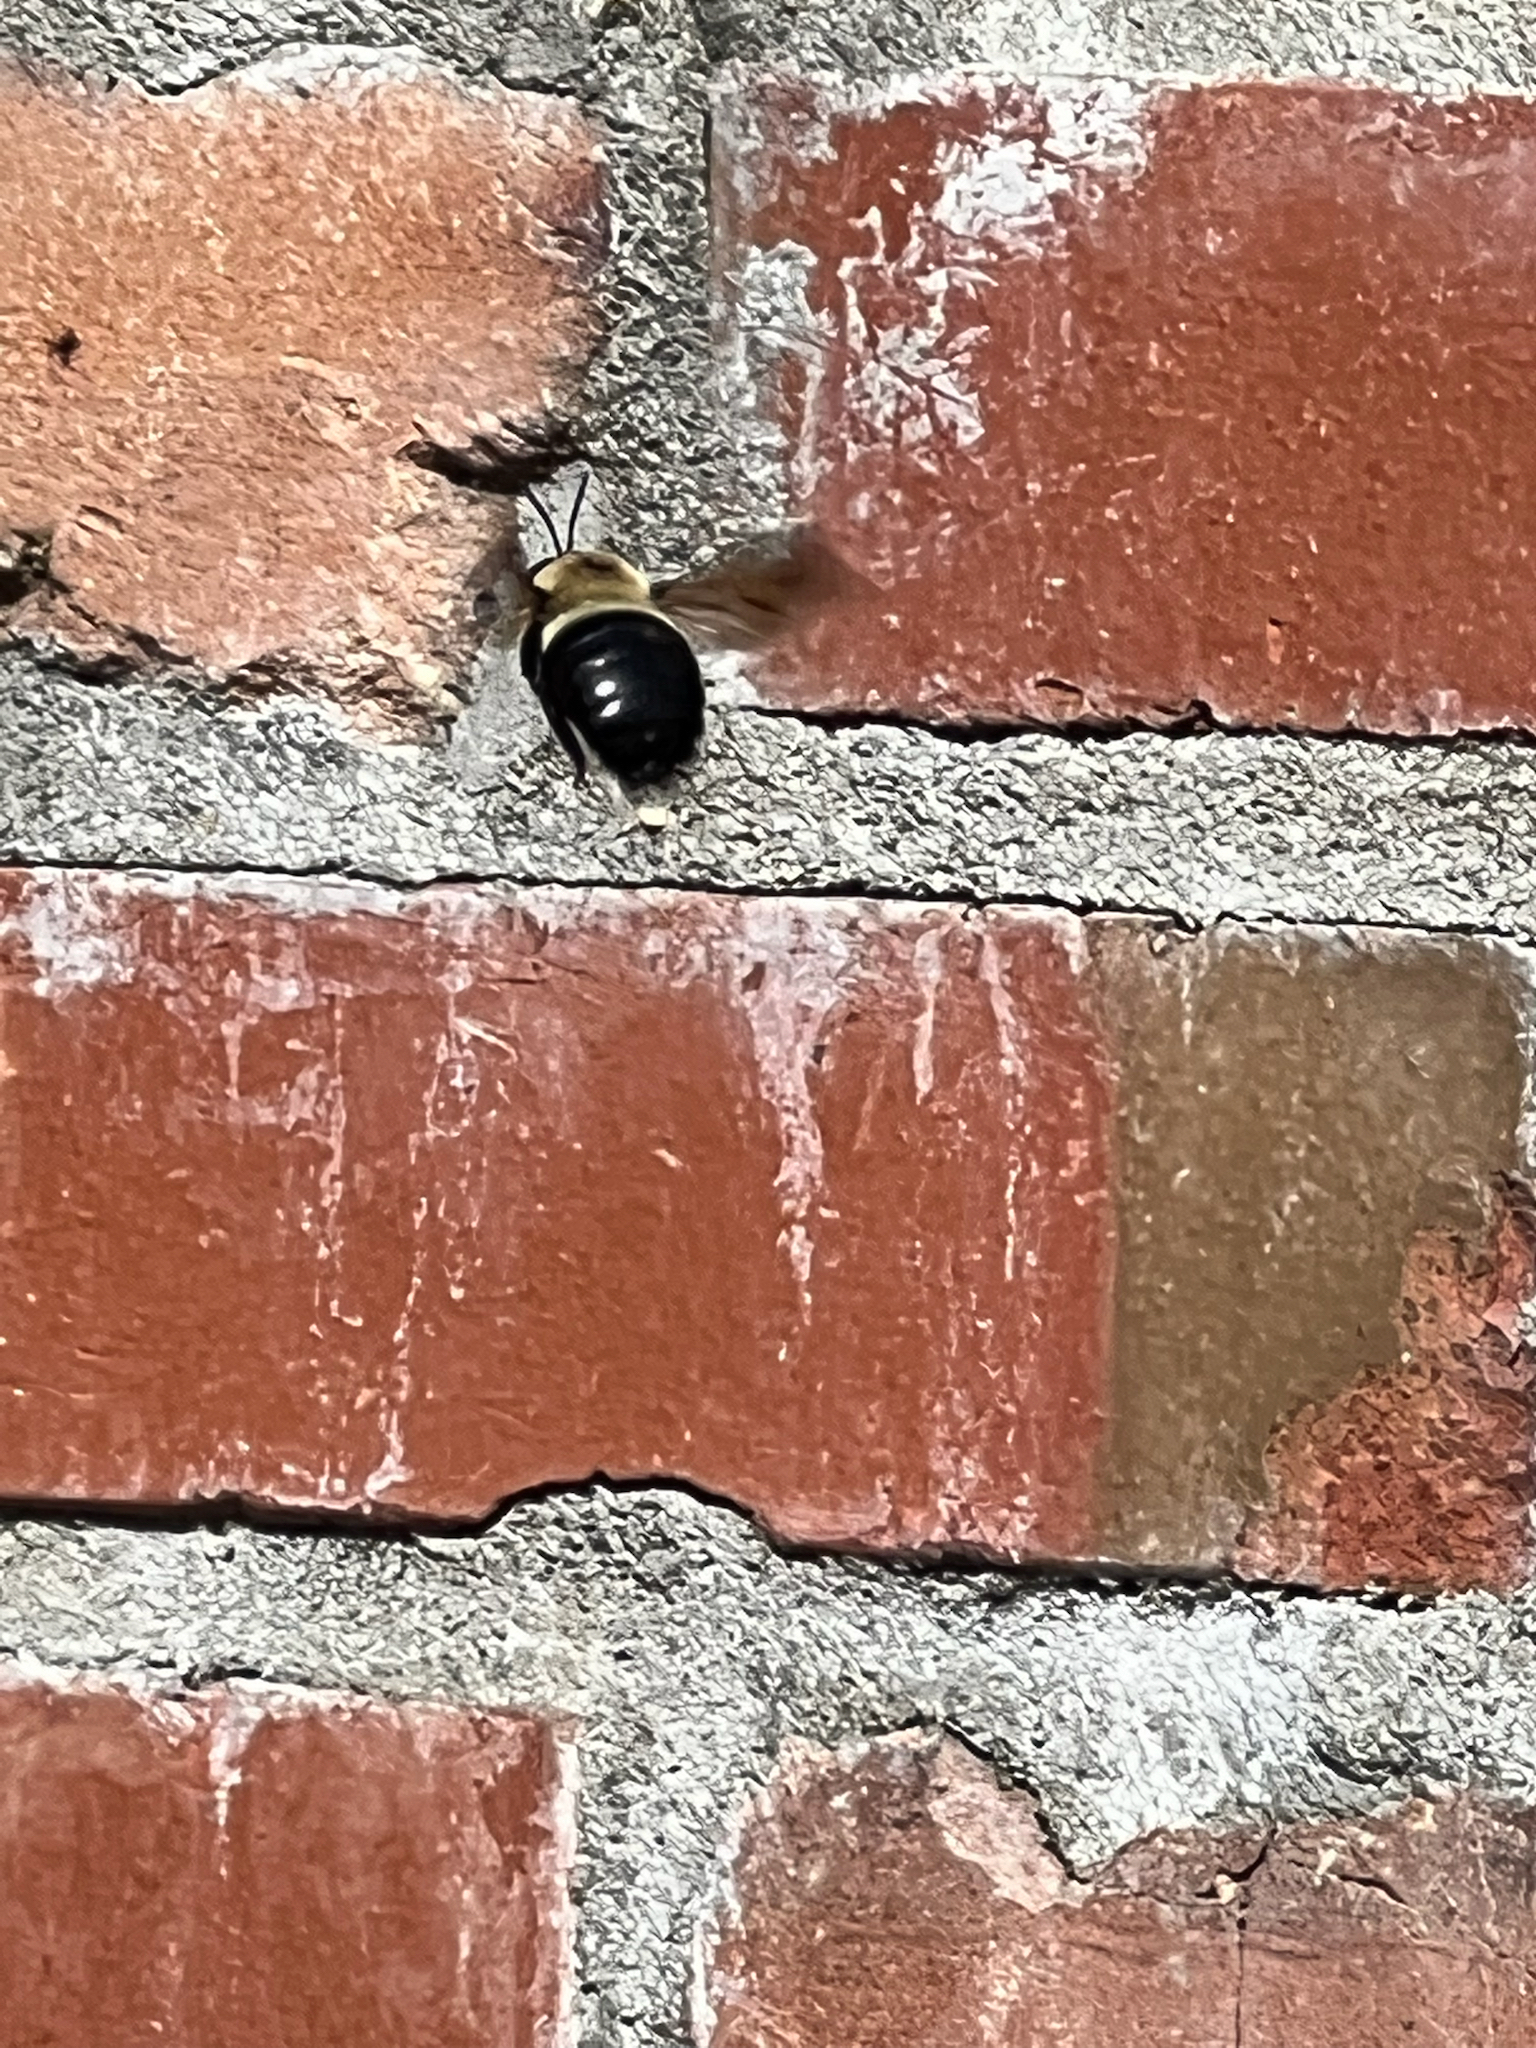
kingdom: Animalia
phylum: Arthropoda
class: Insecta
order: Hymenoptera
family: Apidae
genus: Xylocopa
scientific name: Xylocopa virginica
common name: Carpenter bee
